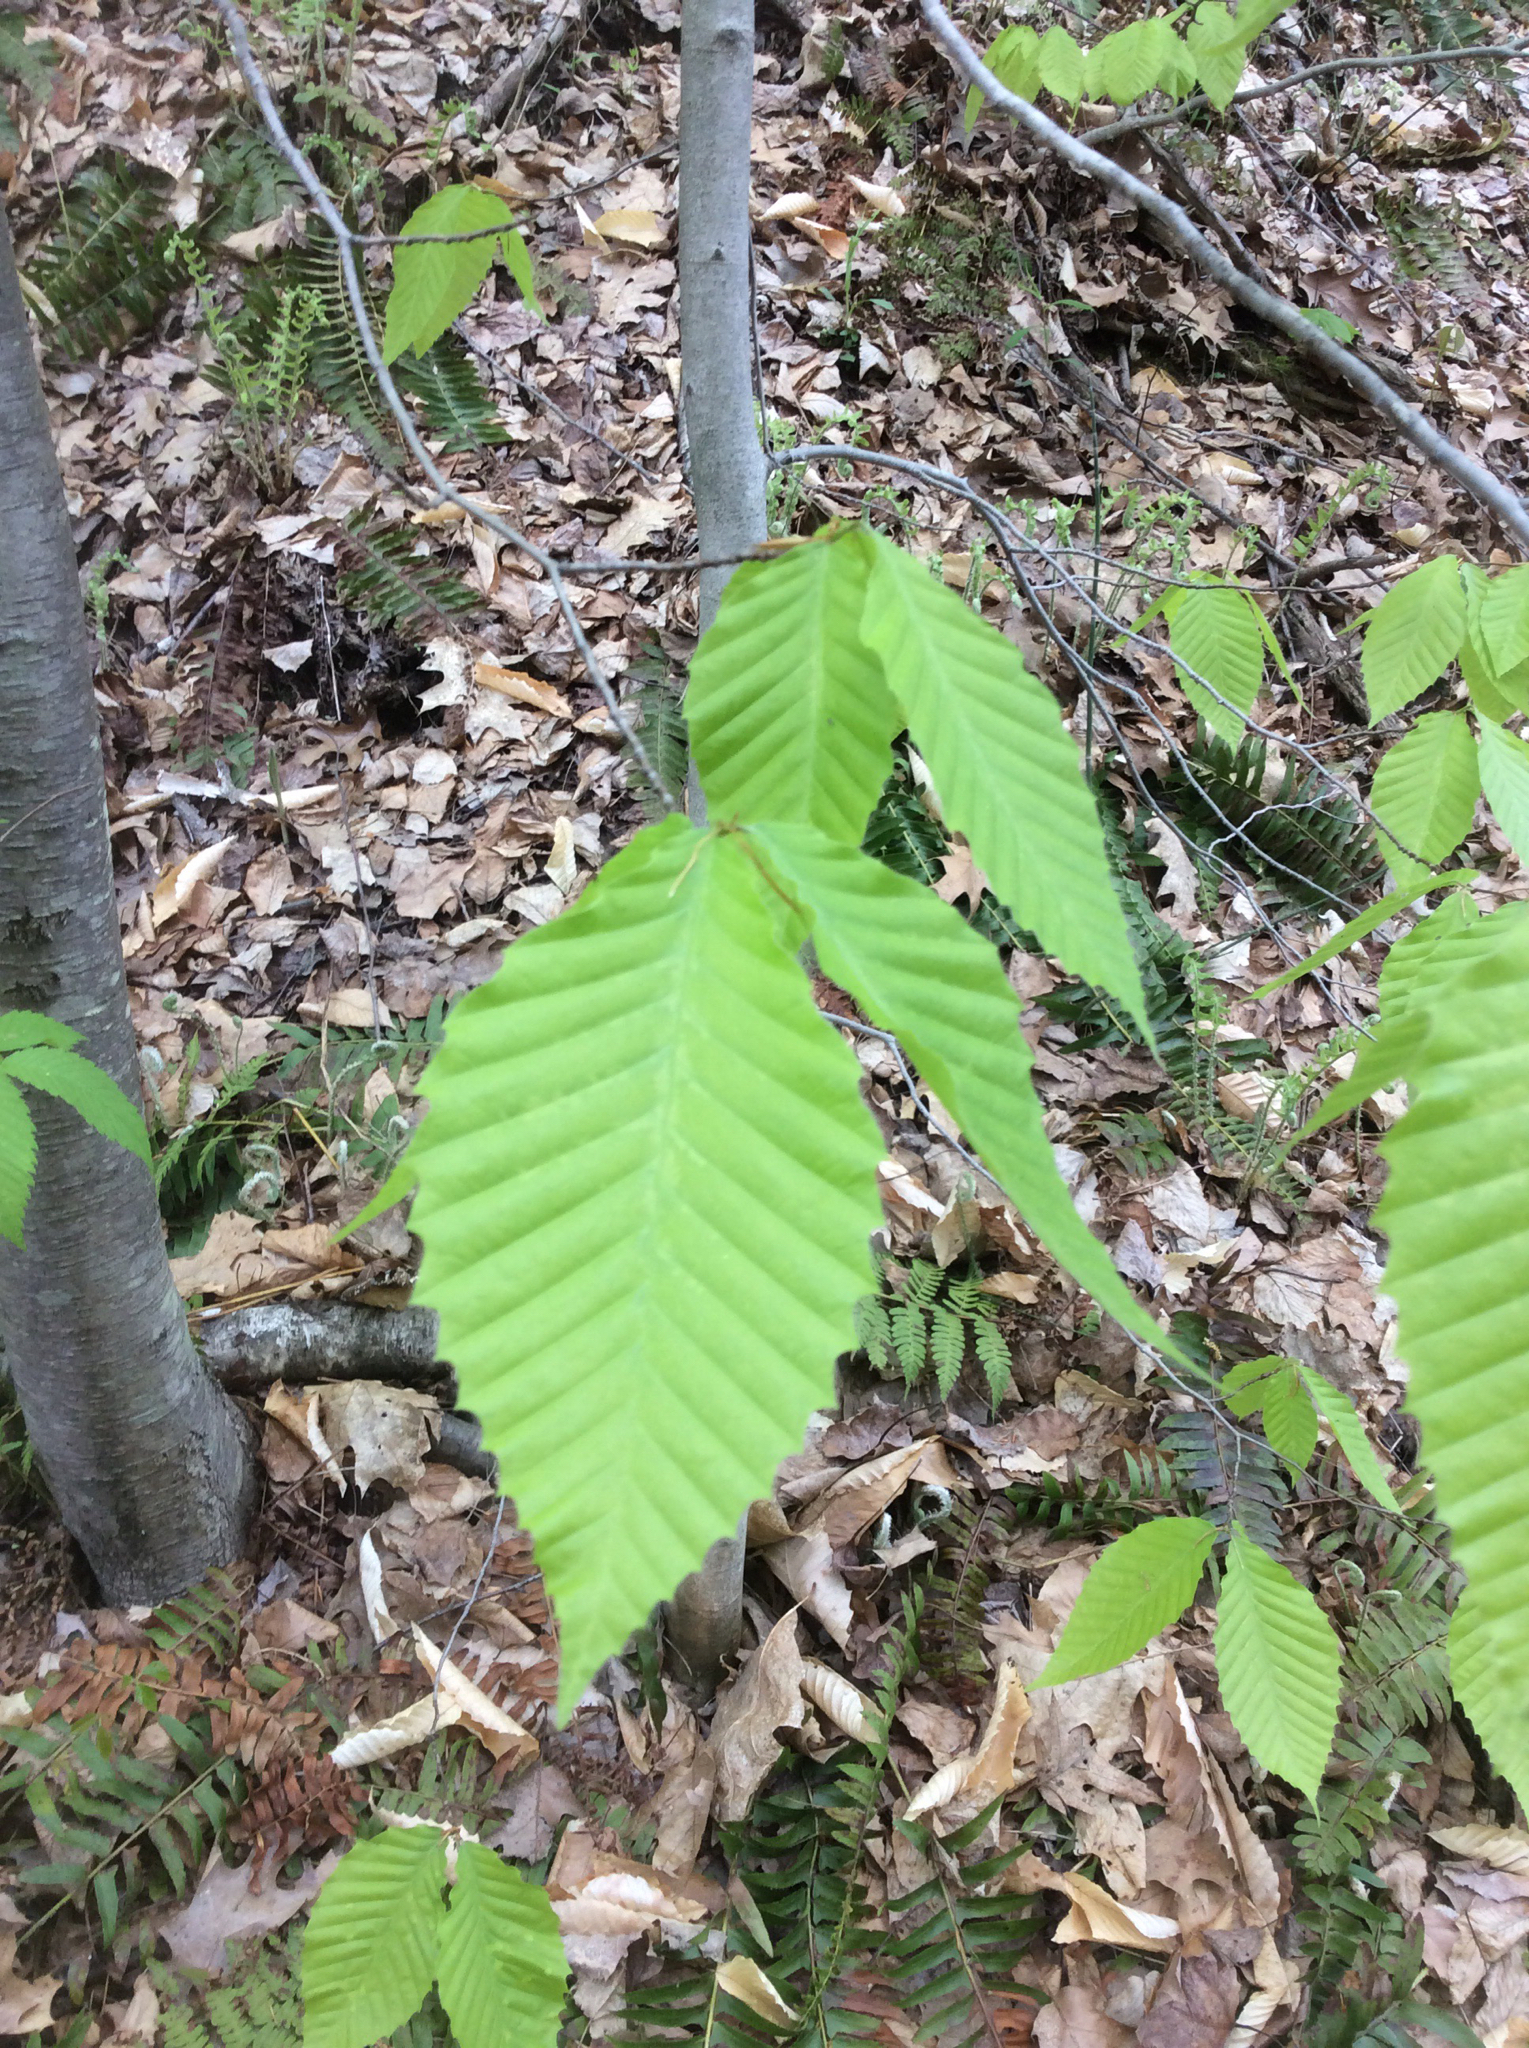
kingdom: Plantae
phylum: Tracheophyta
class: Magnoliopsida
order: Fagales
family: Fagaceae
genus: Fagus
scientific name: Fagus grandifolia
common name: American beech
